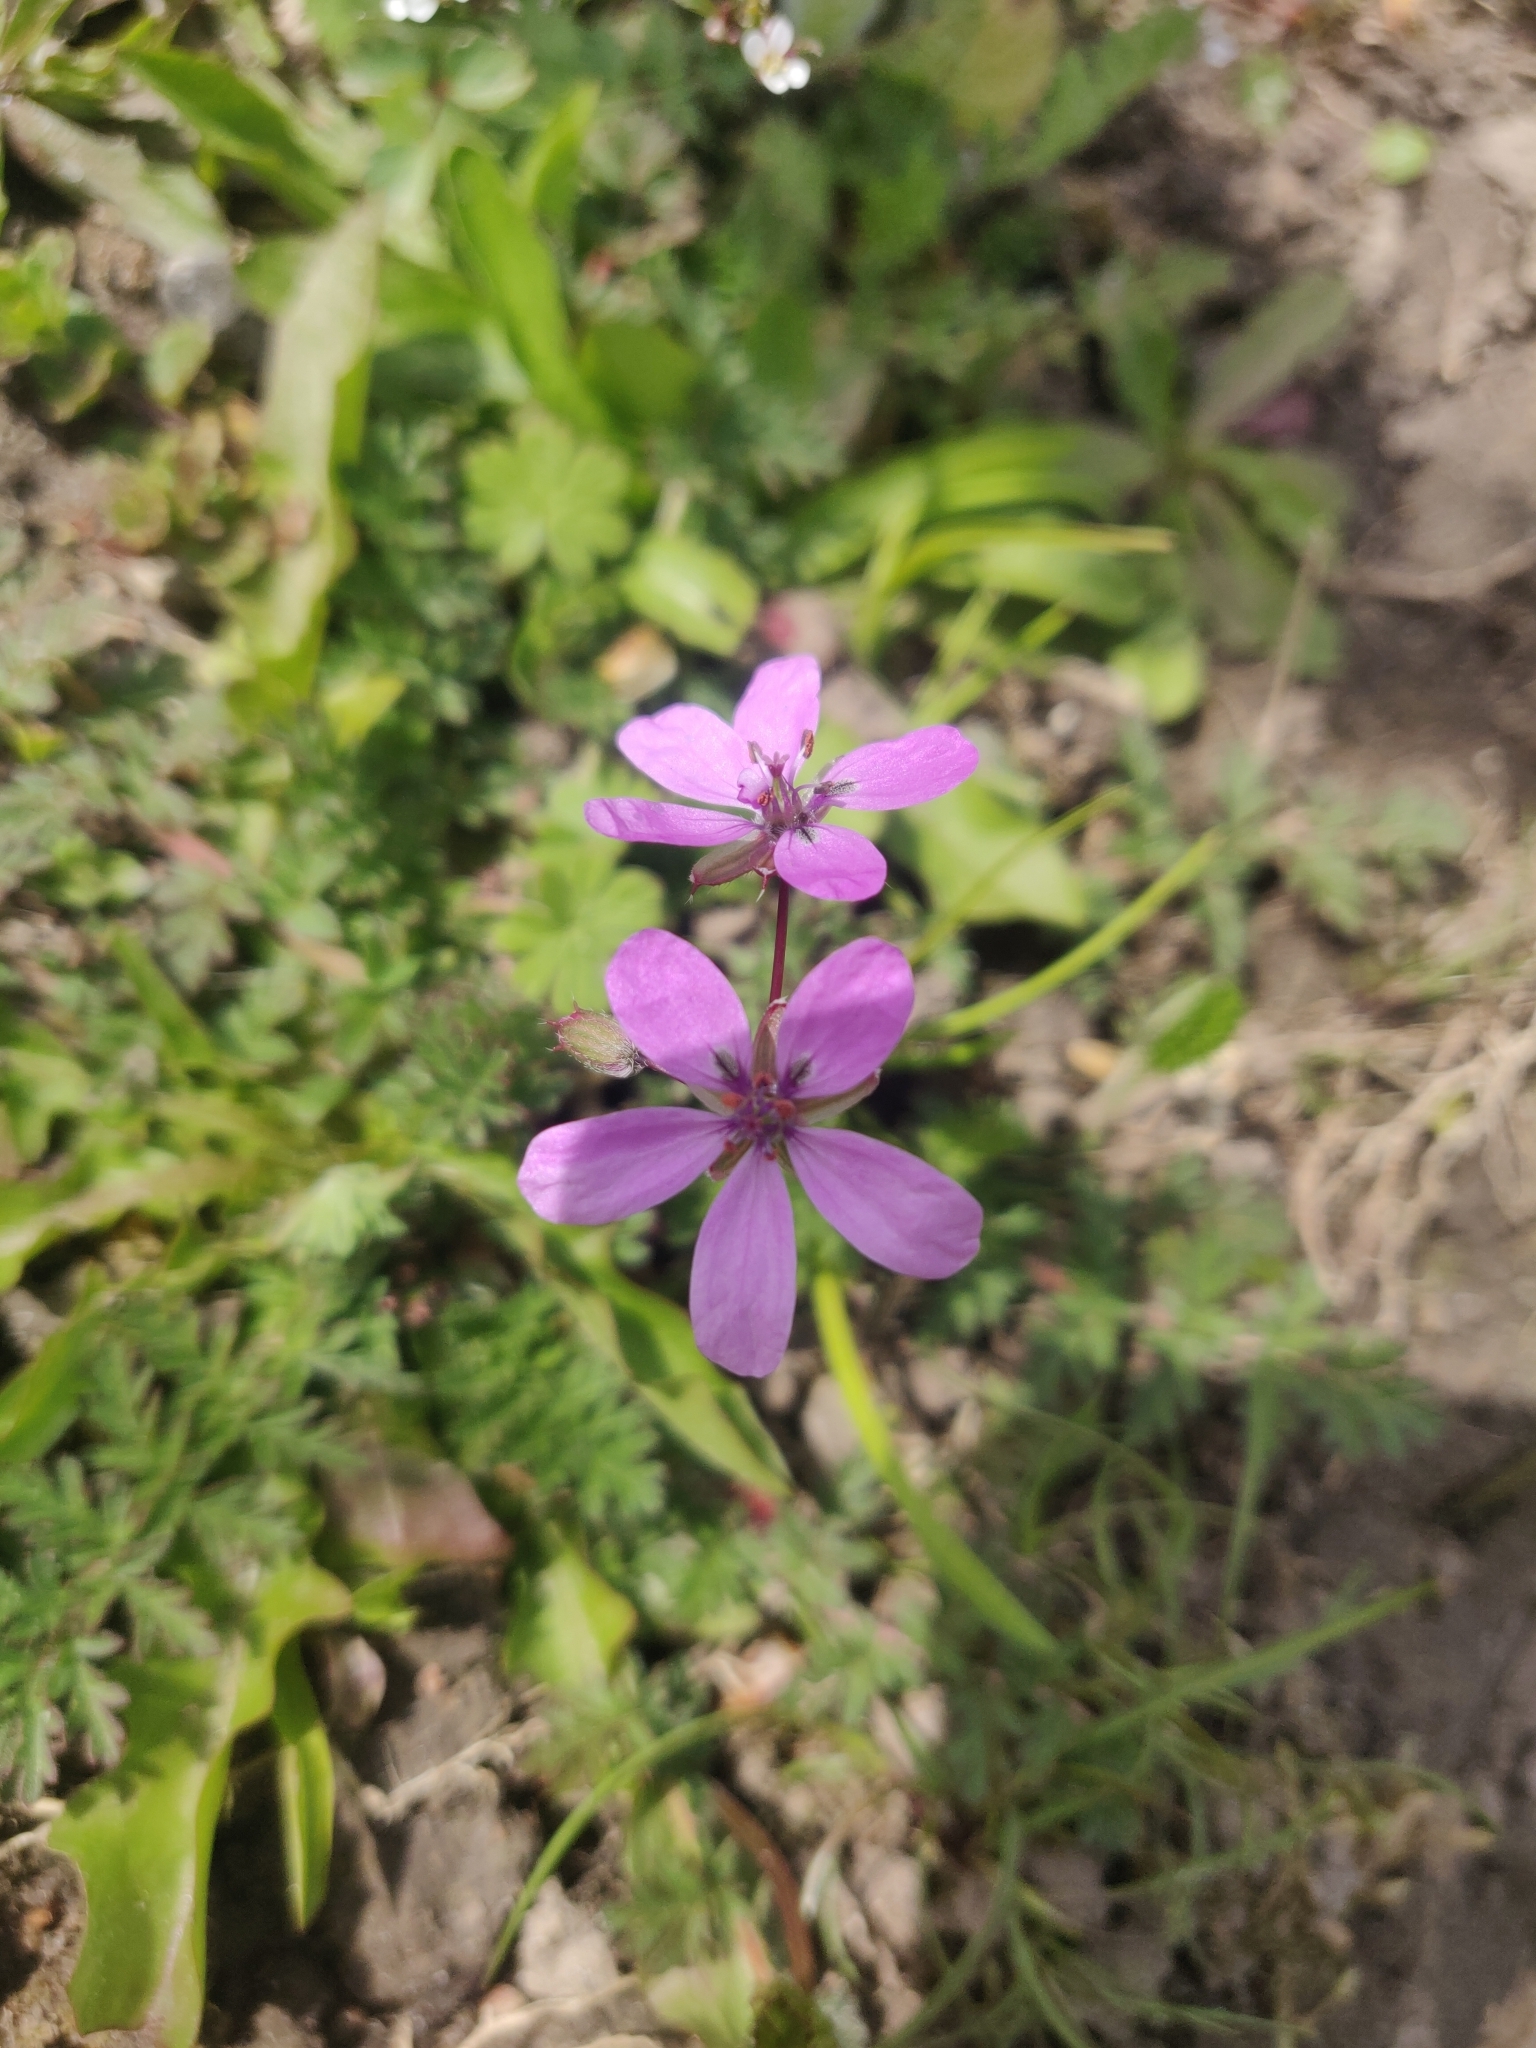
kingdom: Plantae
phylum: Tracheophyta
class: Magnoliopsida
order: Geraniales
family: Geraniaceae
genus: Erodium
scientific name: Erodium cicutarium
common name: Common stork's-bill
